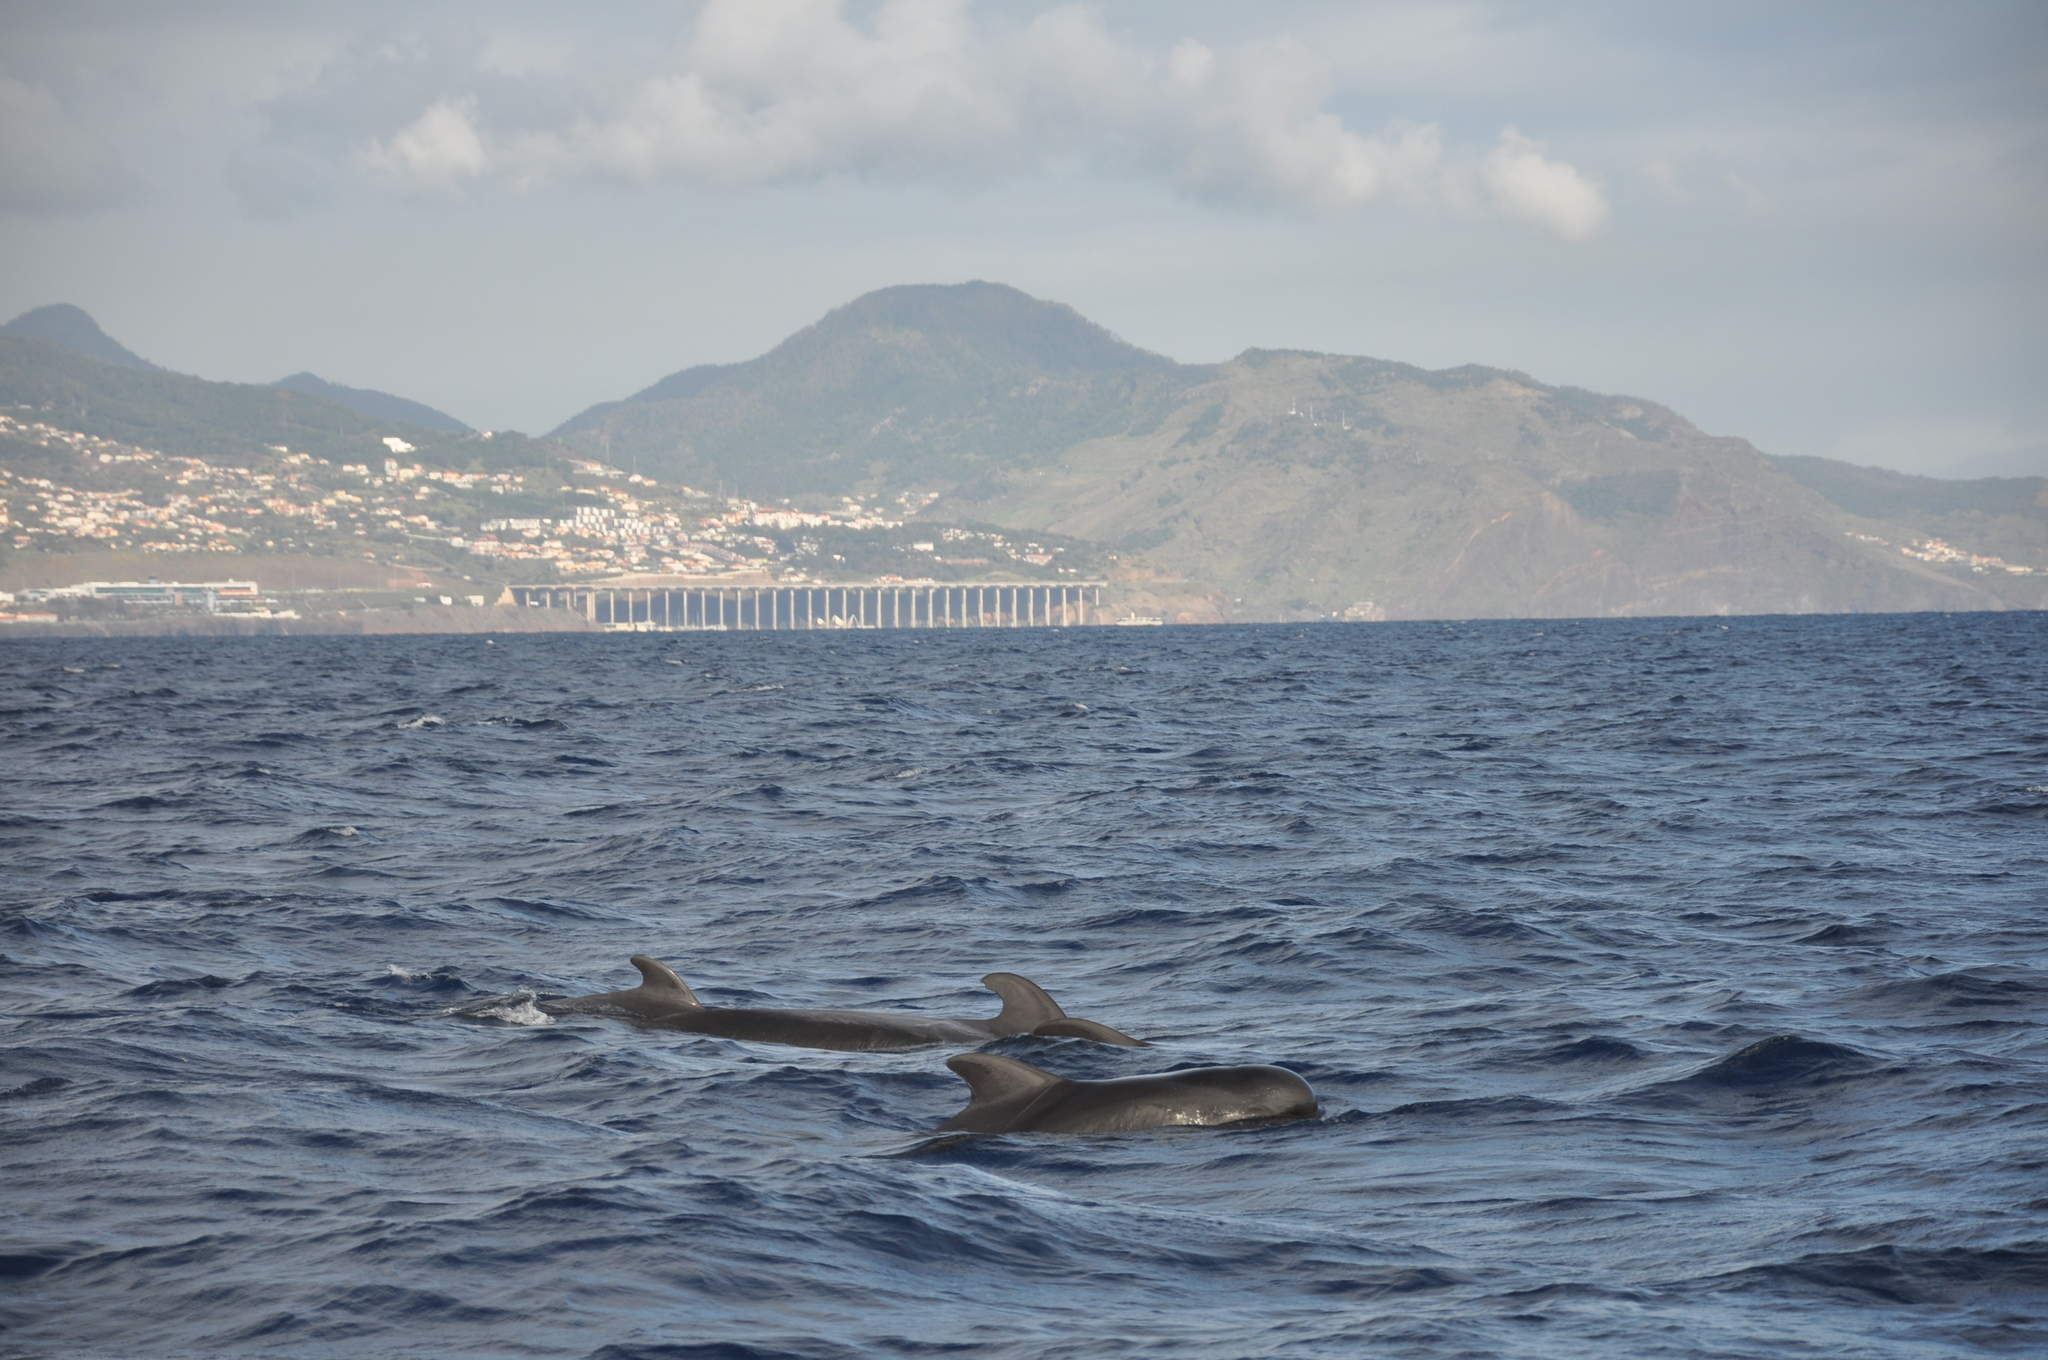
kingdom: Animalia
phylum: Chordata
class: Mammalia
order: Cetacea
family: Delphinidae
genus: Globicephala
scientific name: Globicephala macrorhynchus
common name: Short-finned pilot whale
